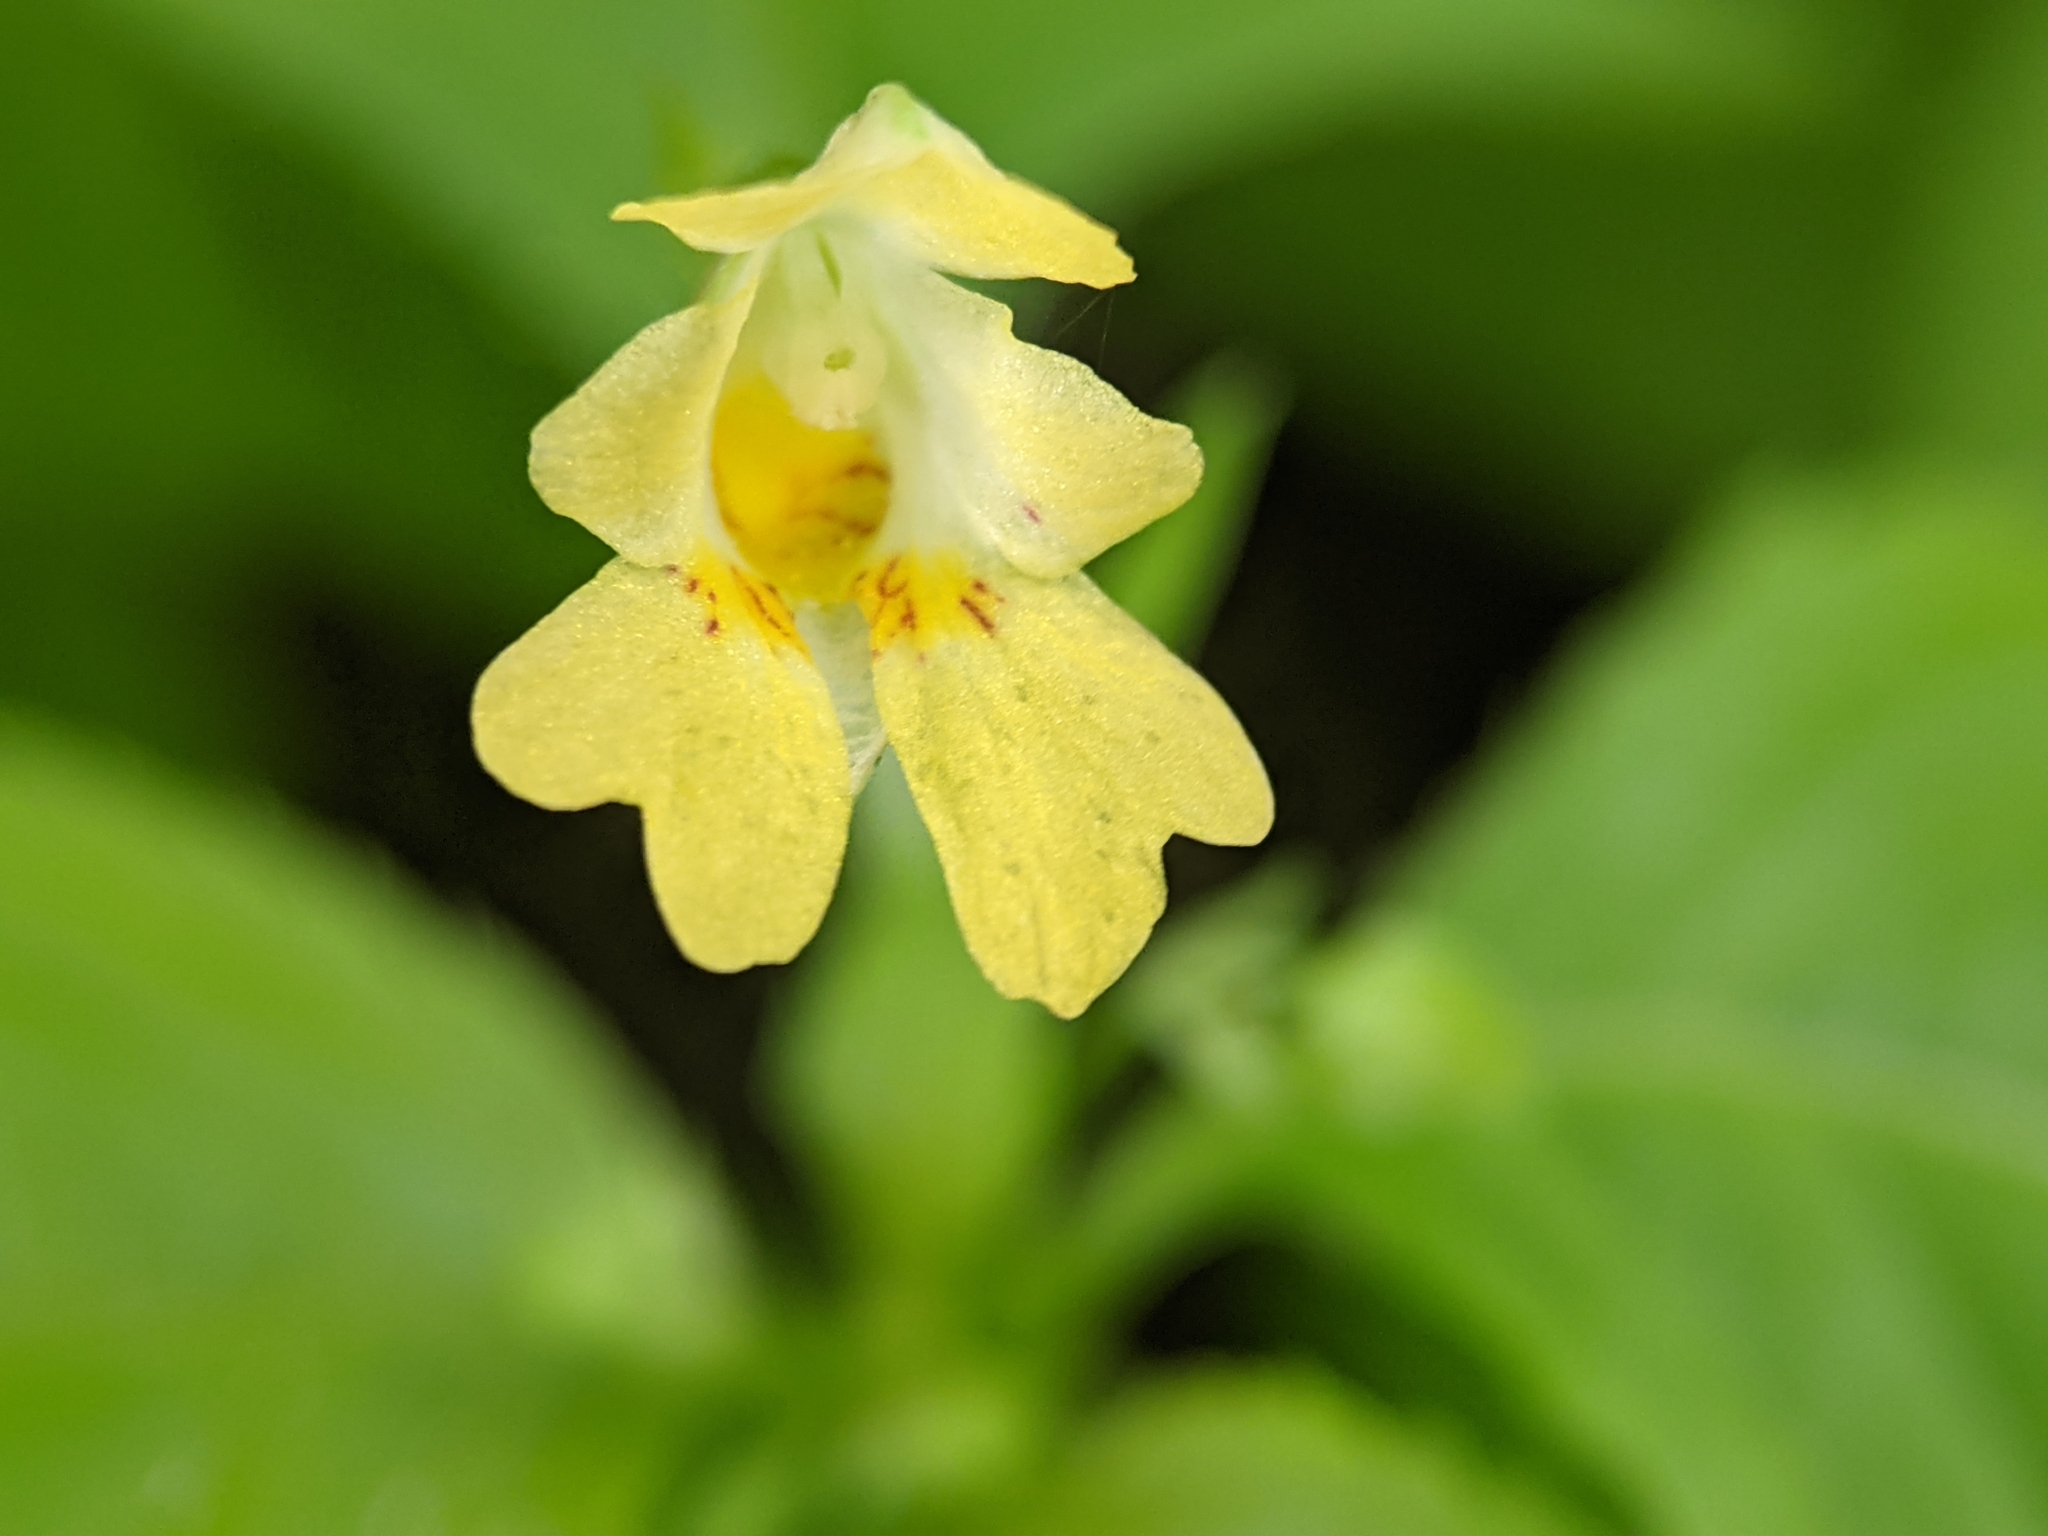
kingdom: Plantae
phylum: Tracheophyta
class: Magnoliopsida
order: Ericales
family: Balsaminaceae
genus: Impatiens
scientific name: Impatiens parviflora
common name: Small balsam
